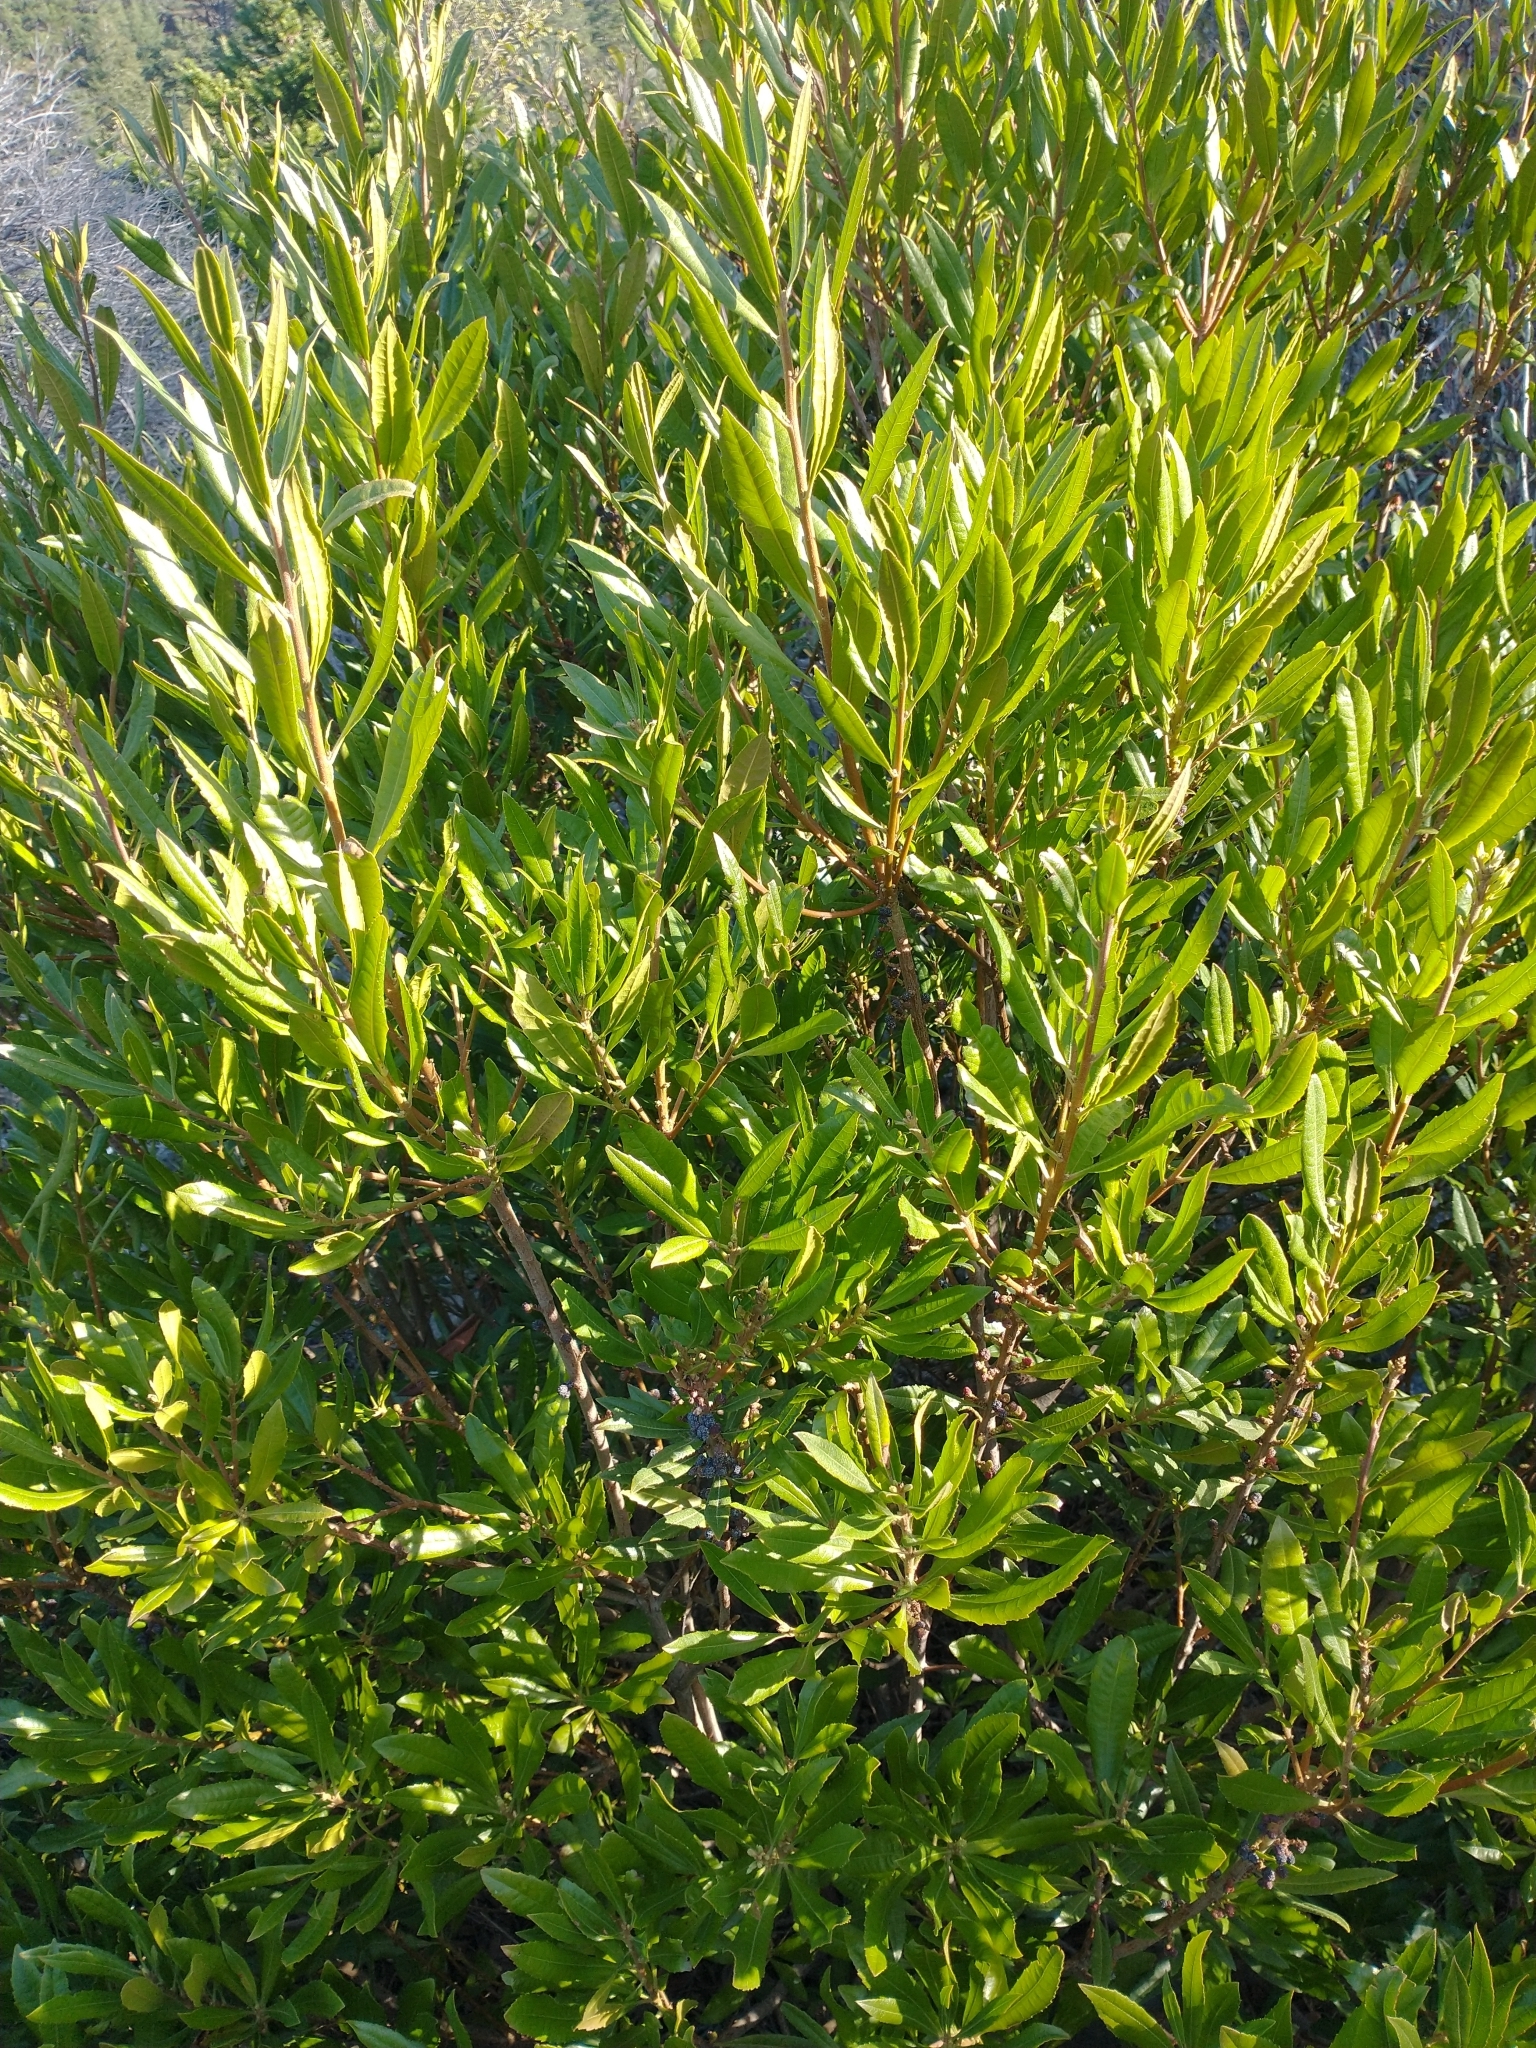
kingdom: Plantae
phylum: Tracheophyta
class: Magnoliopsida
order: Fagales
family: Myricaceae
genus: Morella
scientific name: Morella californica
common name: California wax-myrtle
